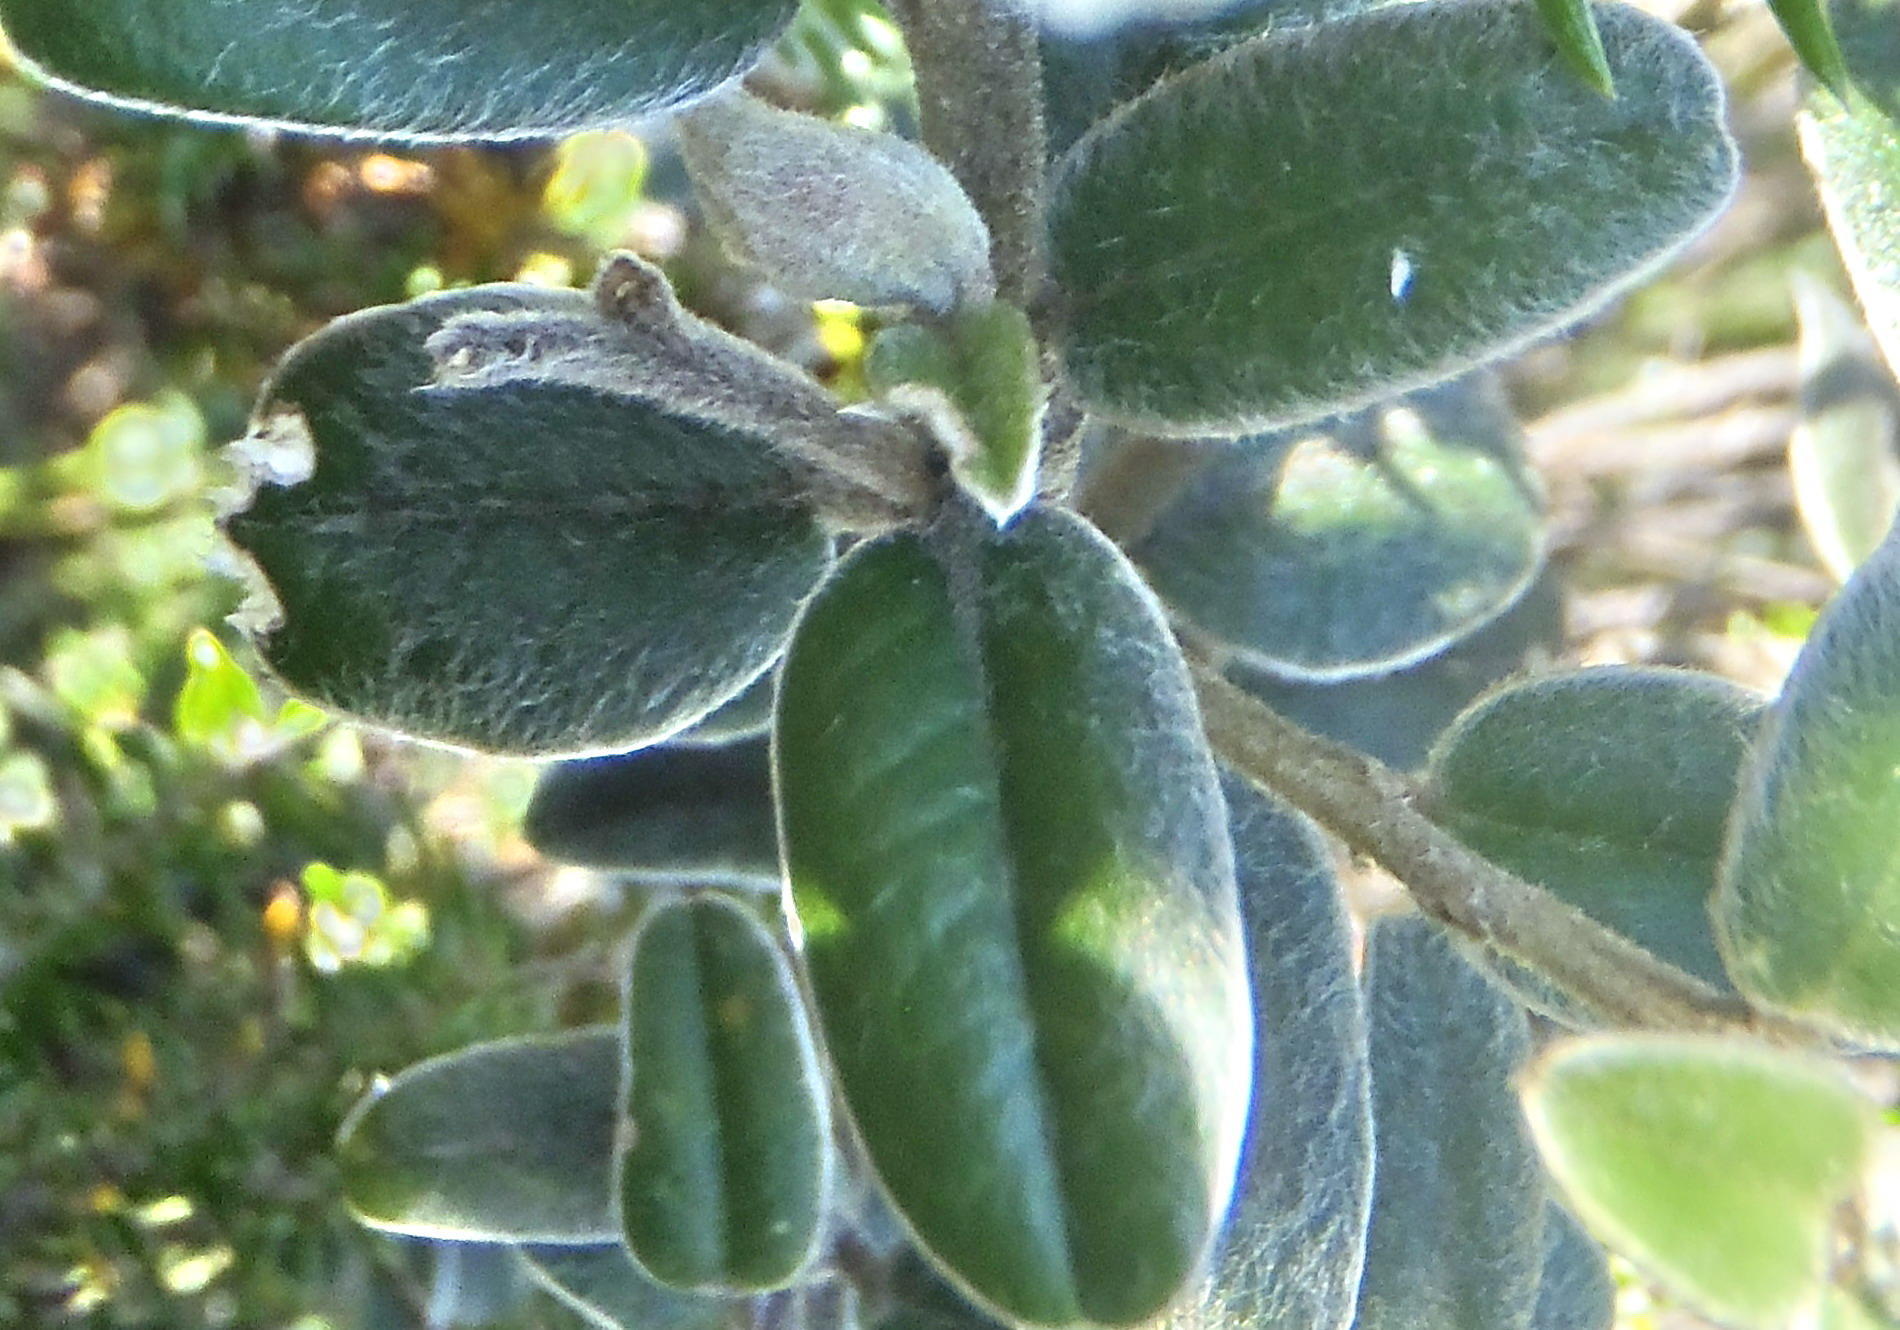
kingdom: Plantae
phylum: Tracheophyta
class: Magnoliopsida
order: Fabales
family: Fabaceae
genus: Podalyria
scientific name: Podalyria burchellii
